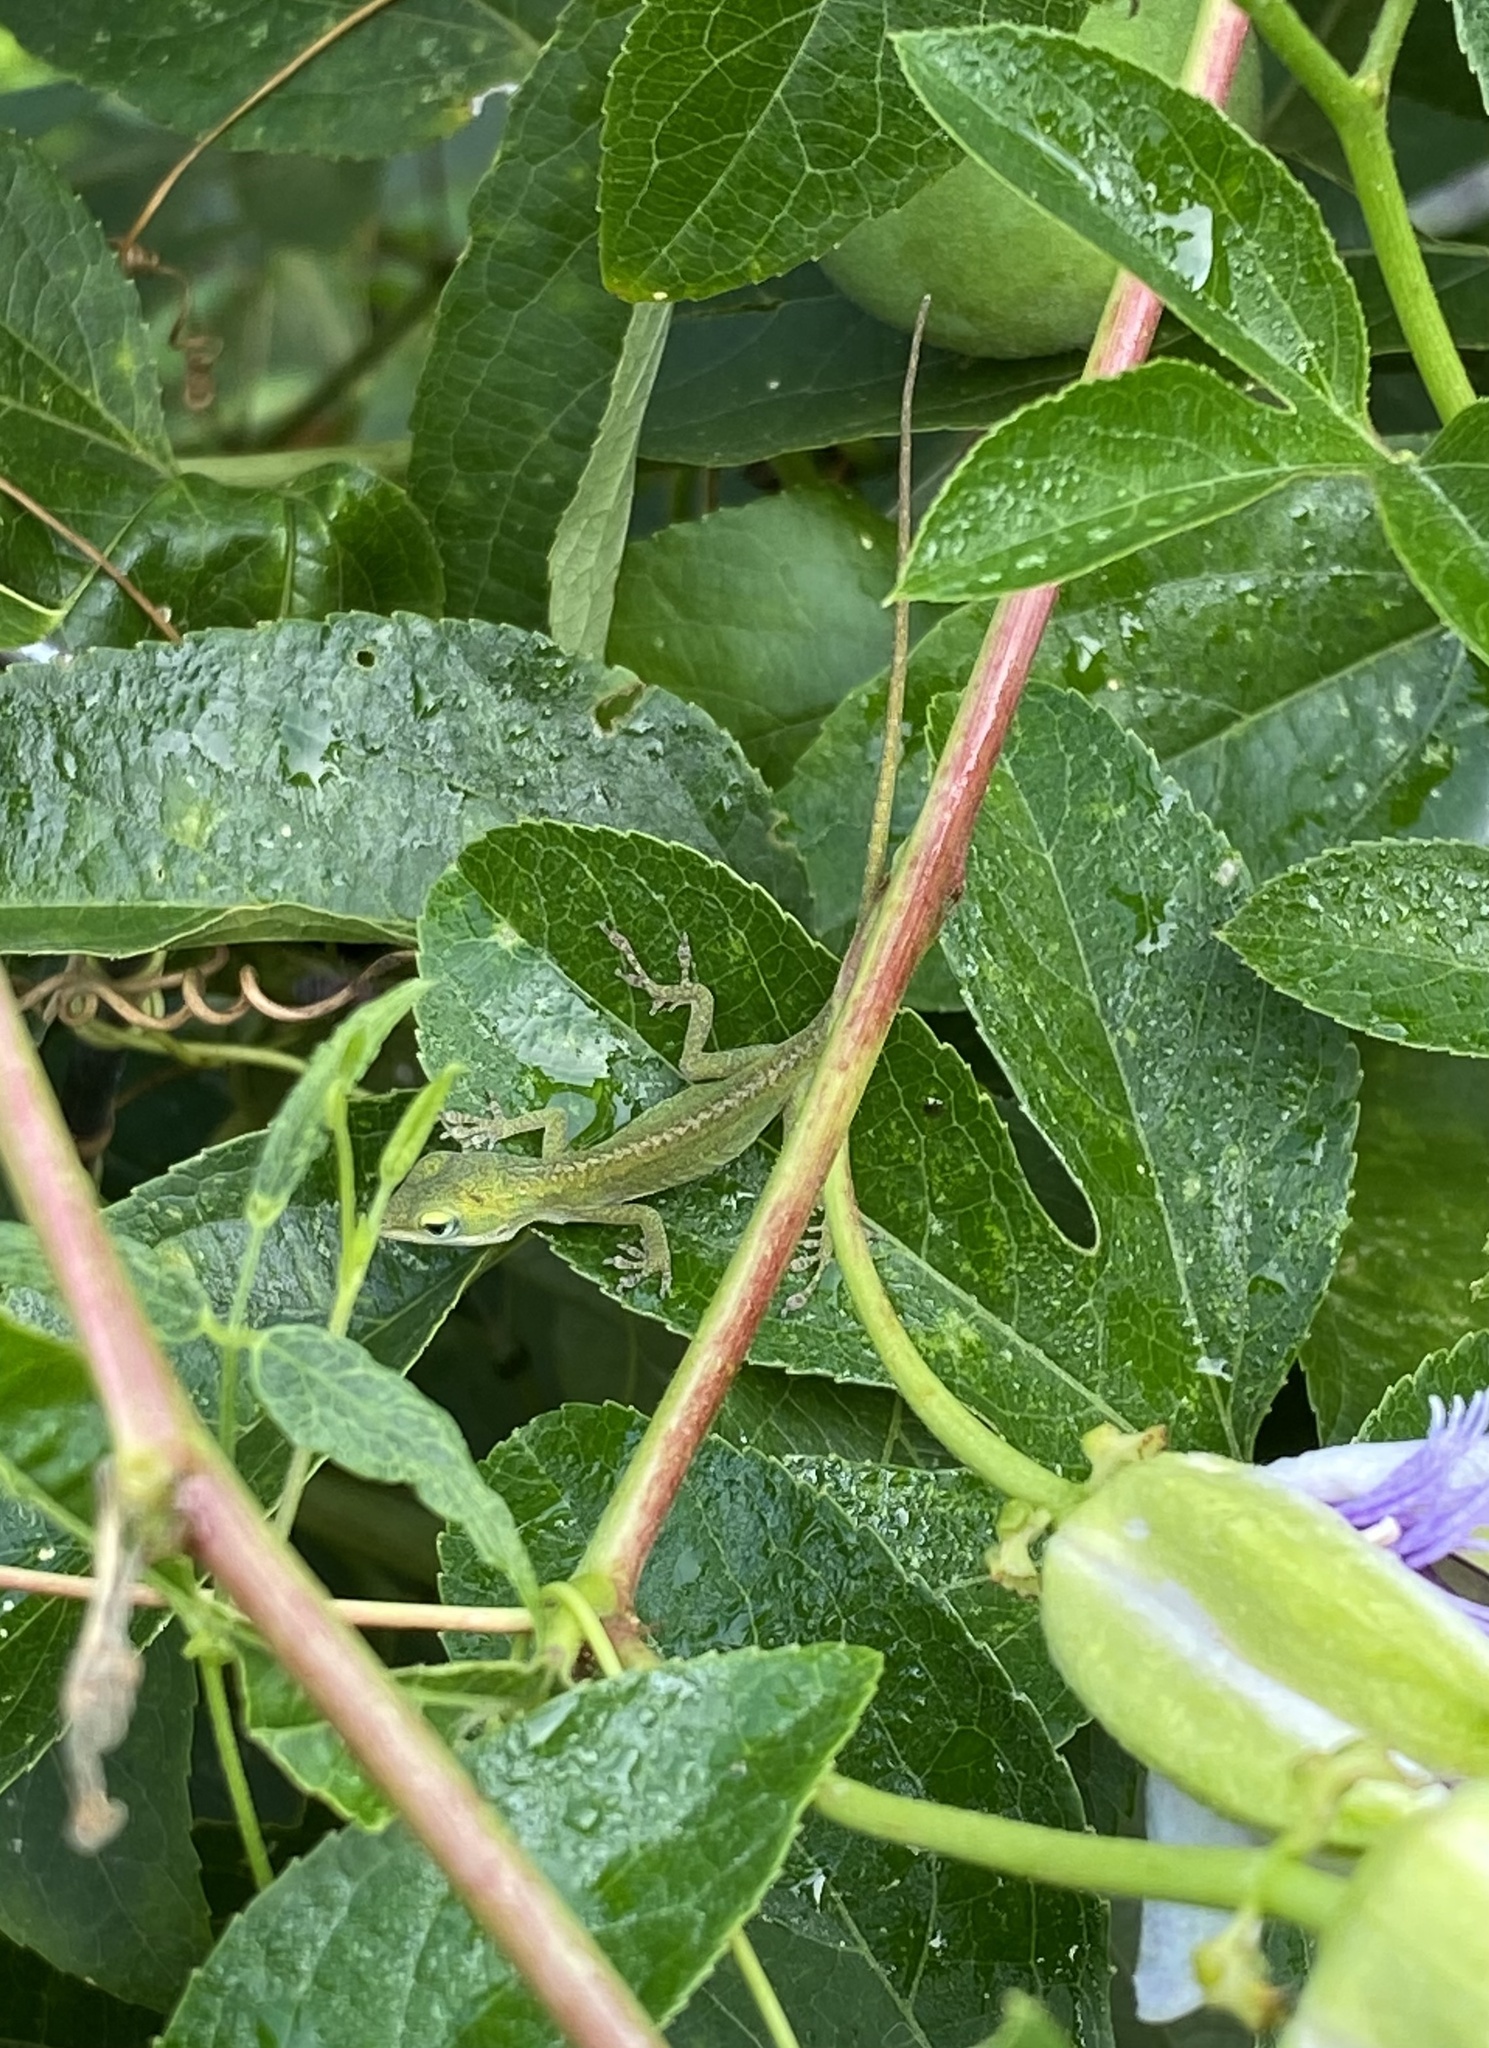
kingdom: Animalia
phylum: Chordata
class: Squamata
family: Dactyloidae
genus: Anolis
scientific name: Anolis carolinensis
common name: Green anole
